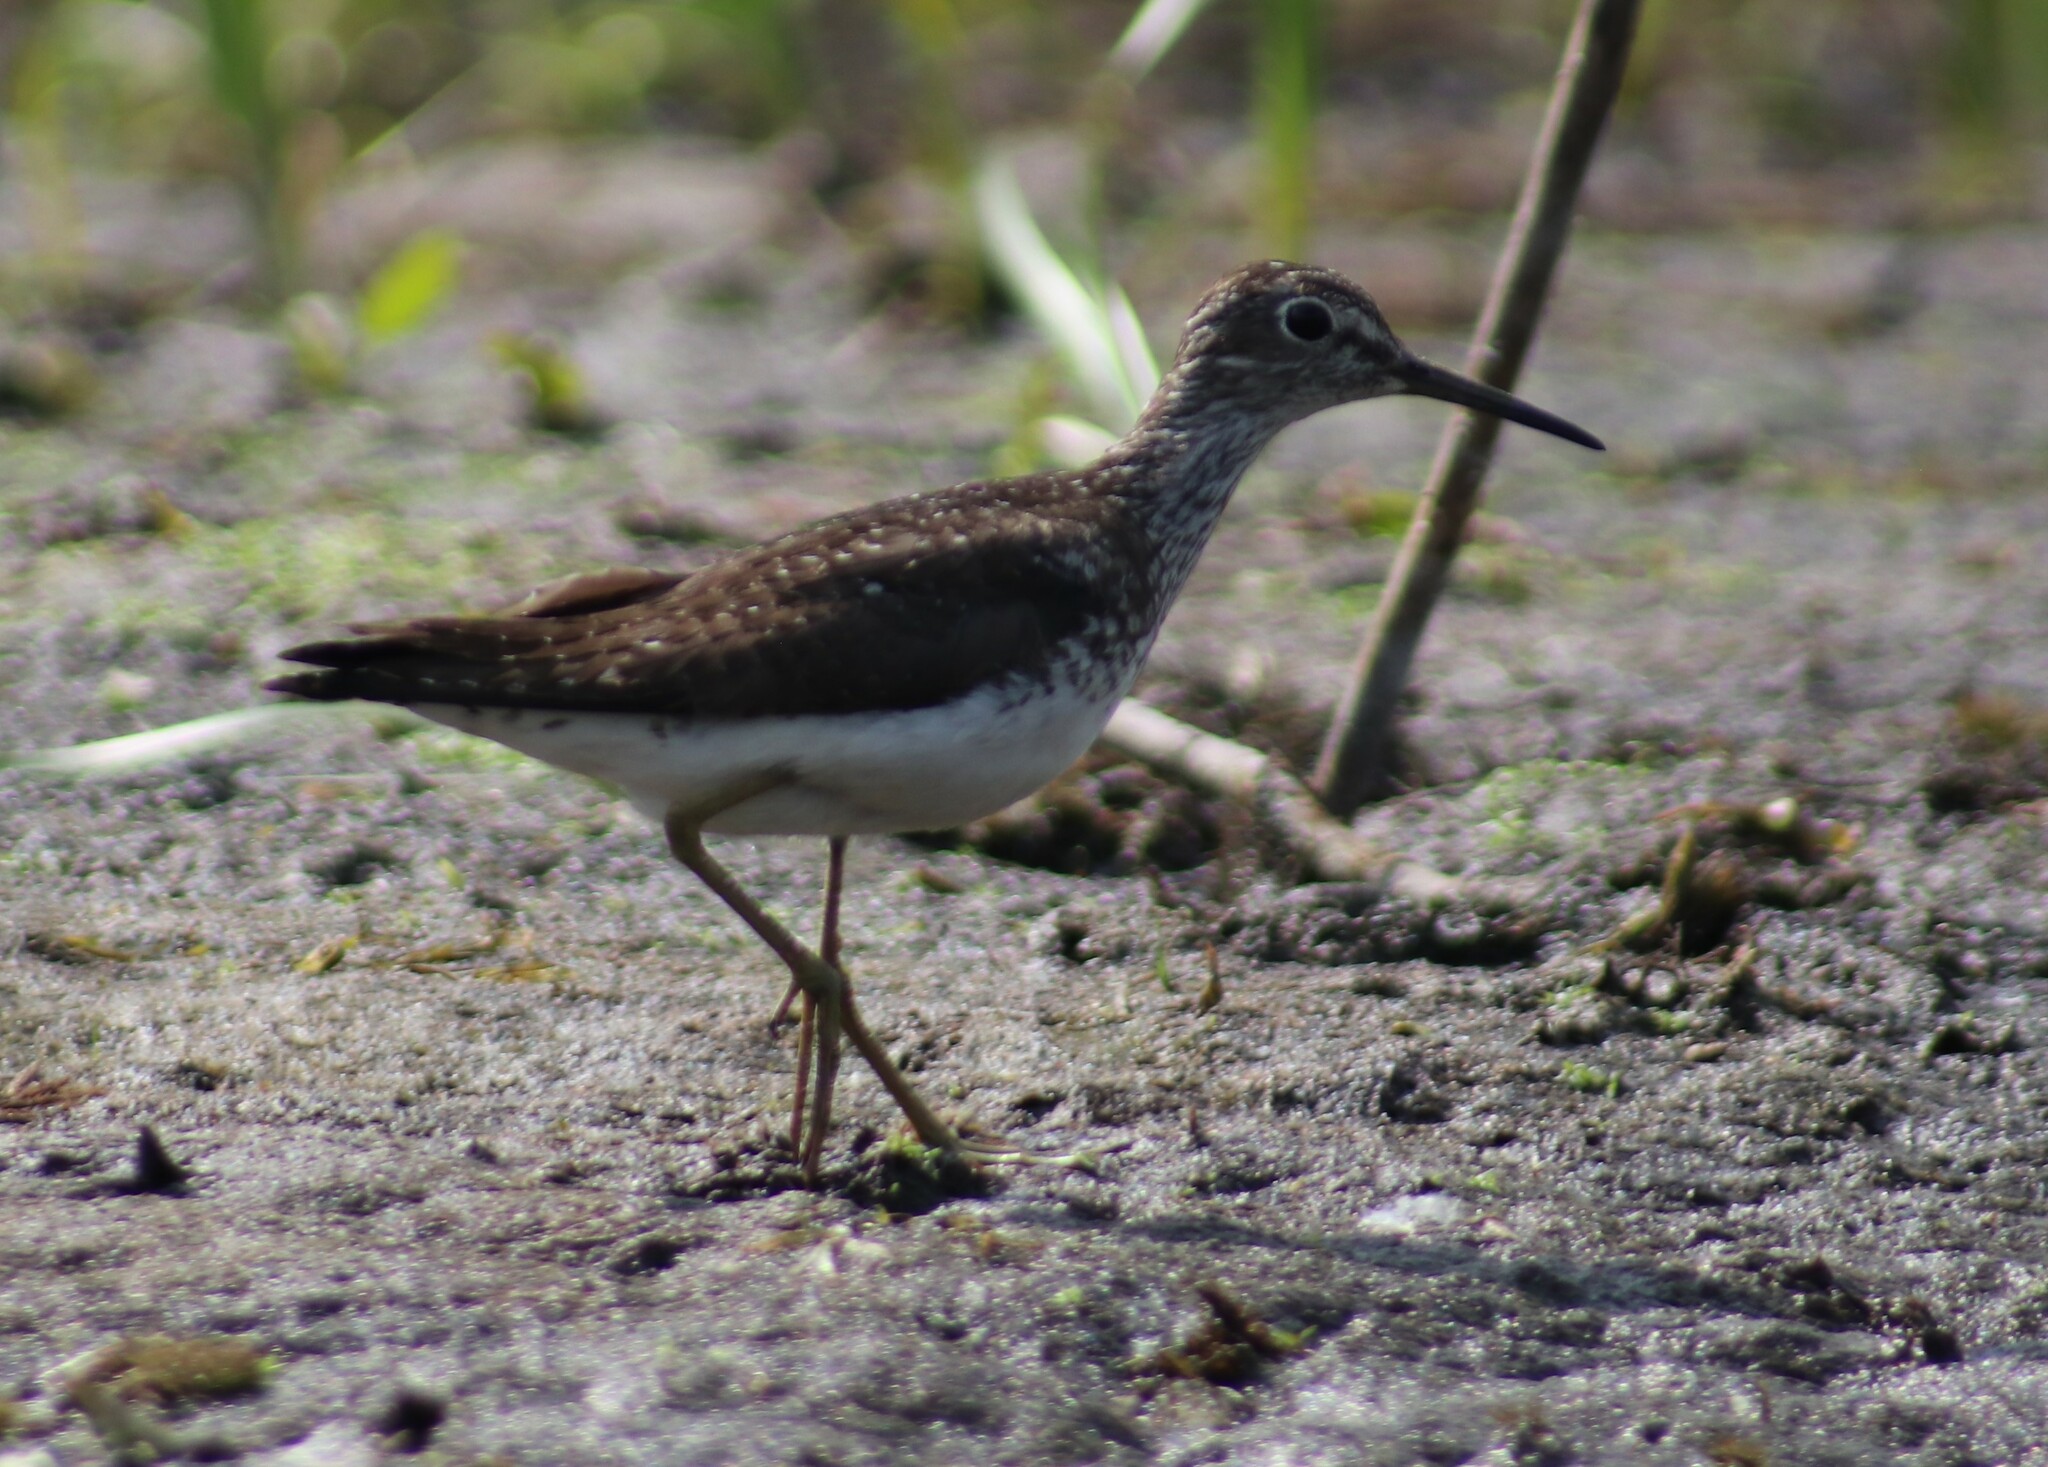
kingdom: Animalia
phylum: Chordata
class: Aves
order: Charadriiformes
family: Scolopacidae
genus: Tringa
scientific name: Tringa solitaria
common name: Solitary sandpiper
